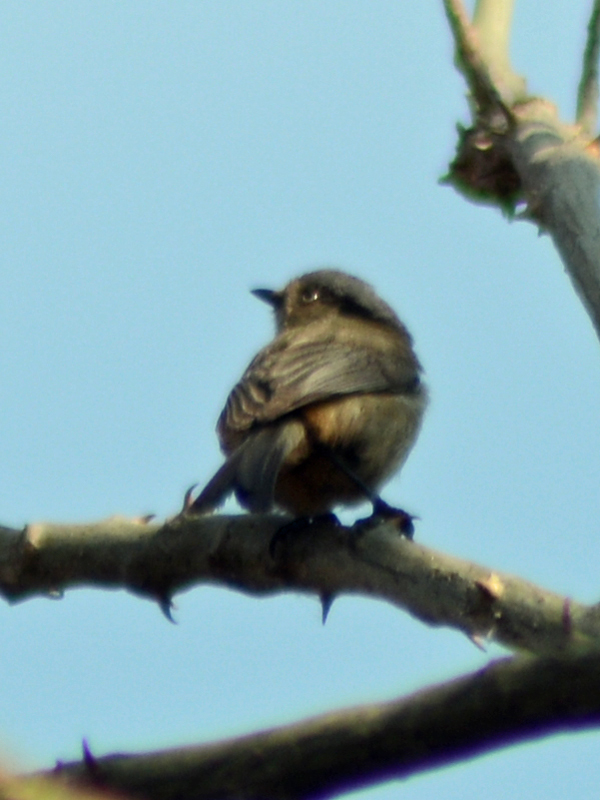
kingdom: Animalia
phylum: Chordata
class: Aves
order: Passeriformes
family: Aegithalidae
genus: Psaltriparus
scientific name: Psaltriparus minimus
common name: American bushtit
